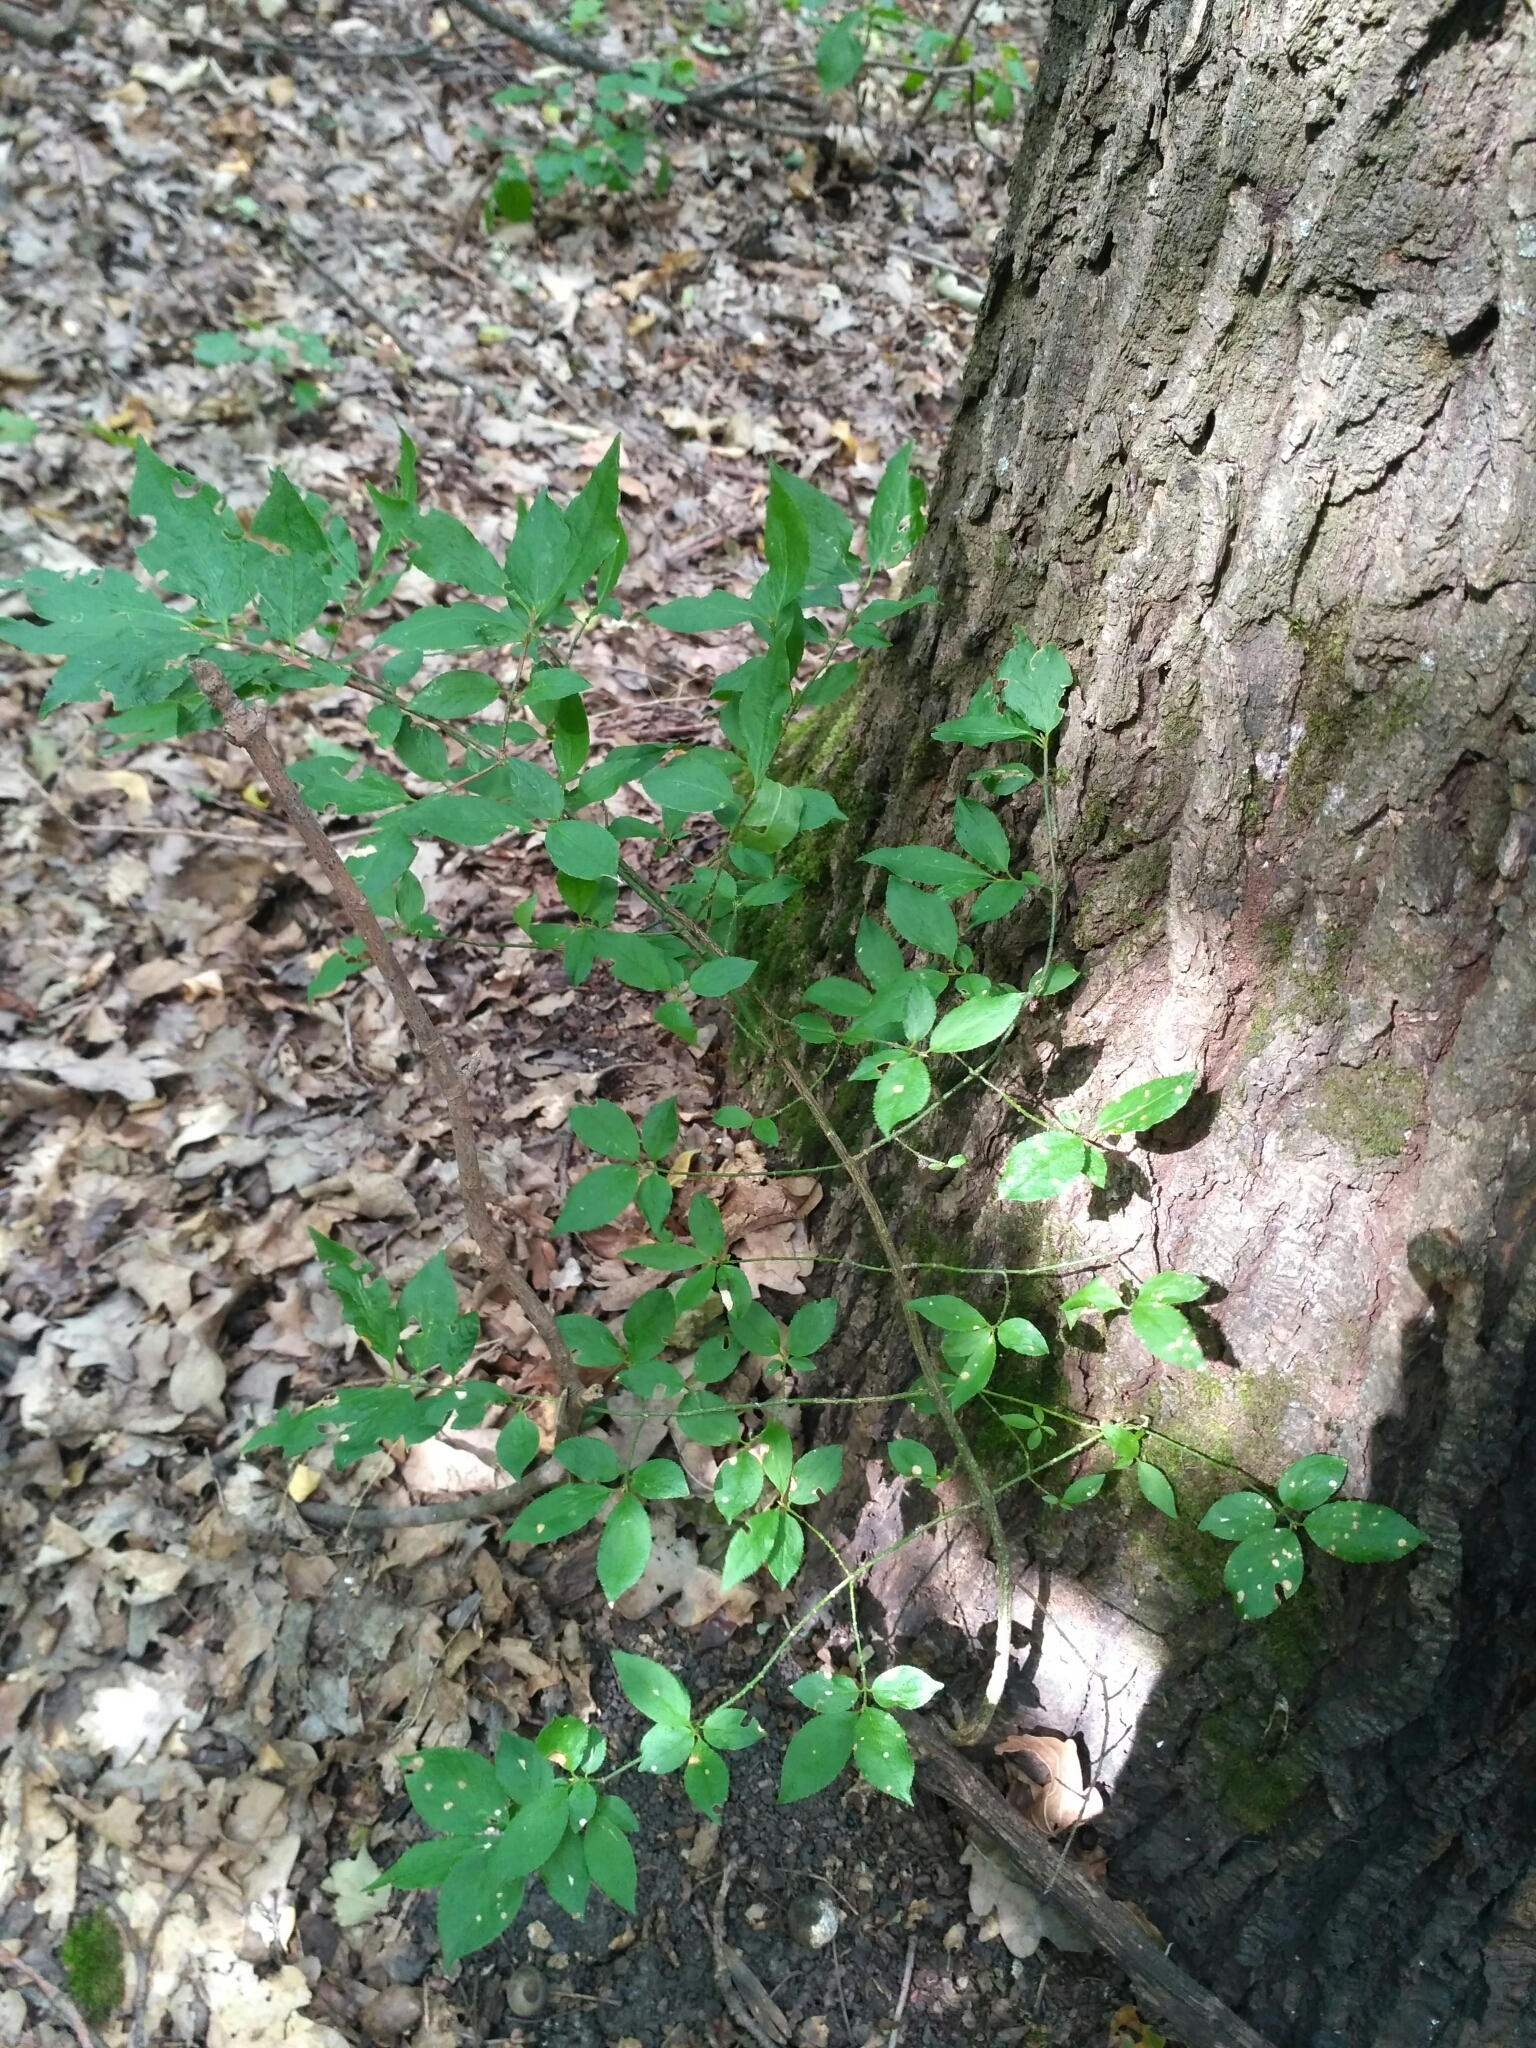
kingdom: Plantae
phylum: Tracheophyta
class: Magnoliopsida
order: Celastrales
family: Celastraceae
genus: Euonymus
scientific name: Euonymus verrucosus
